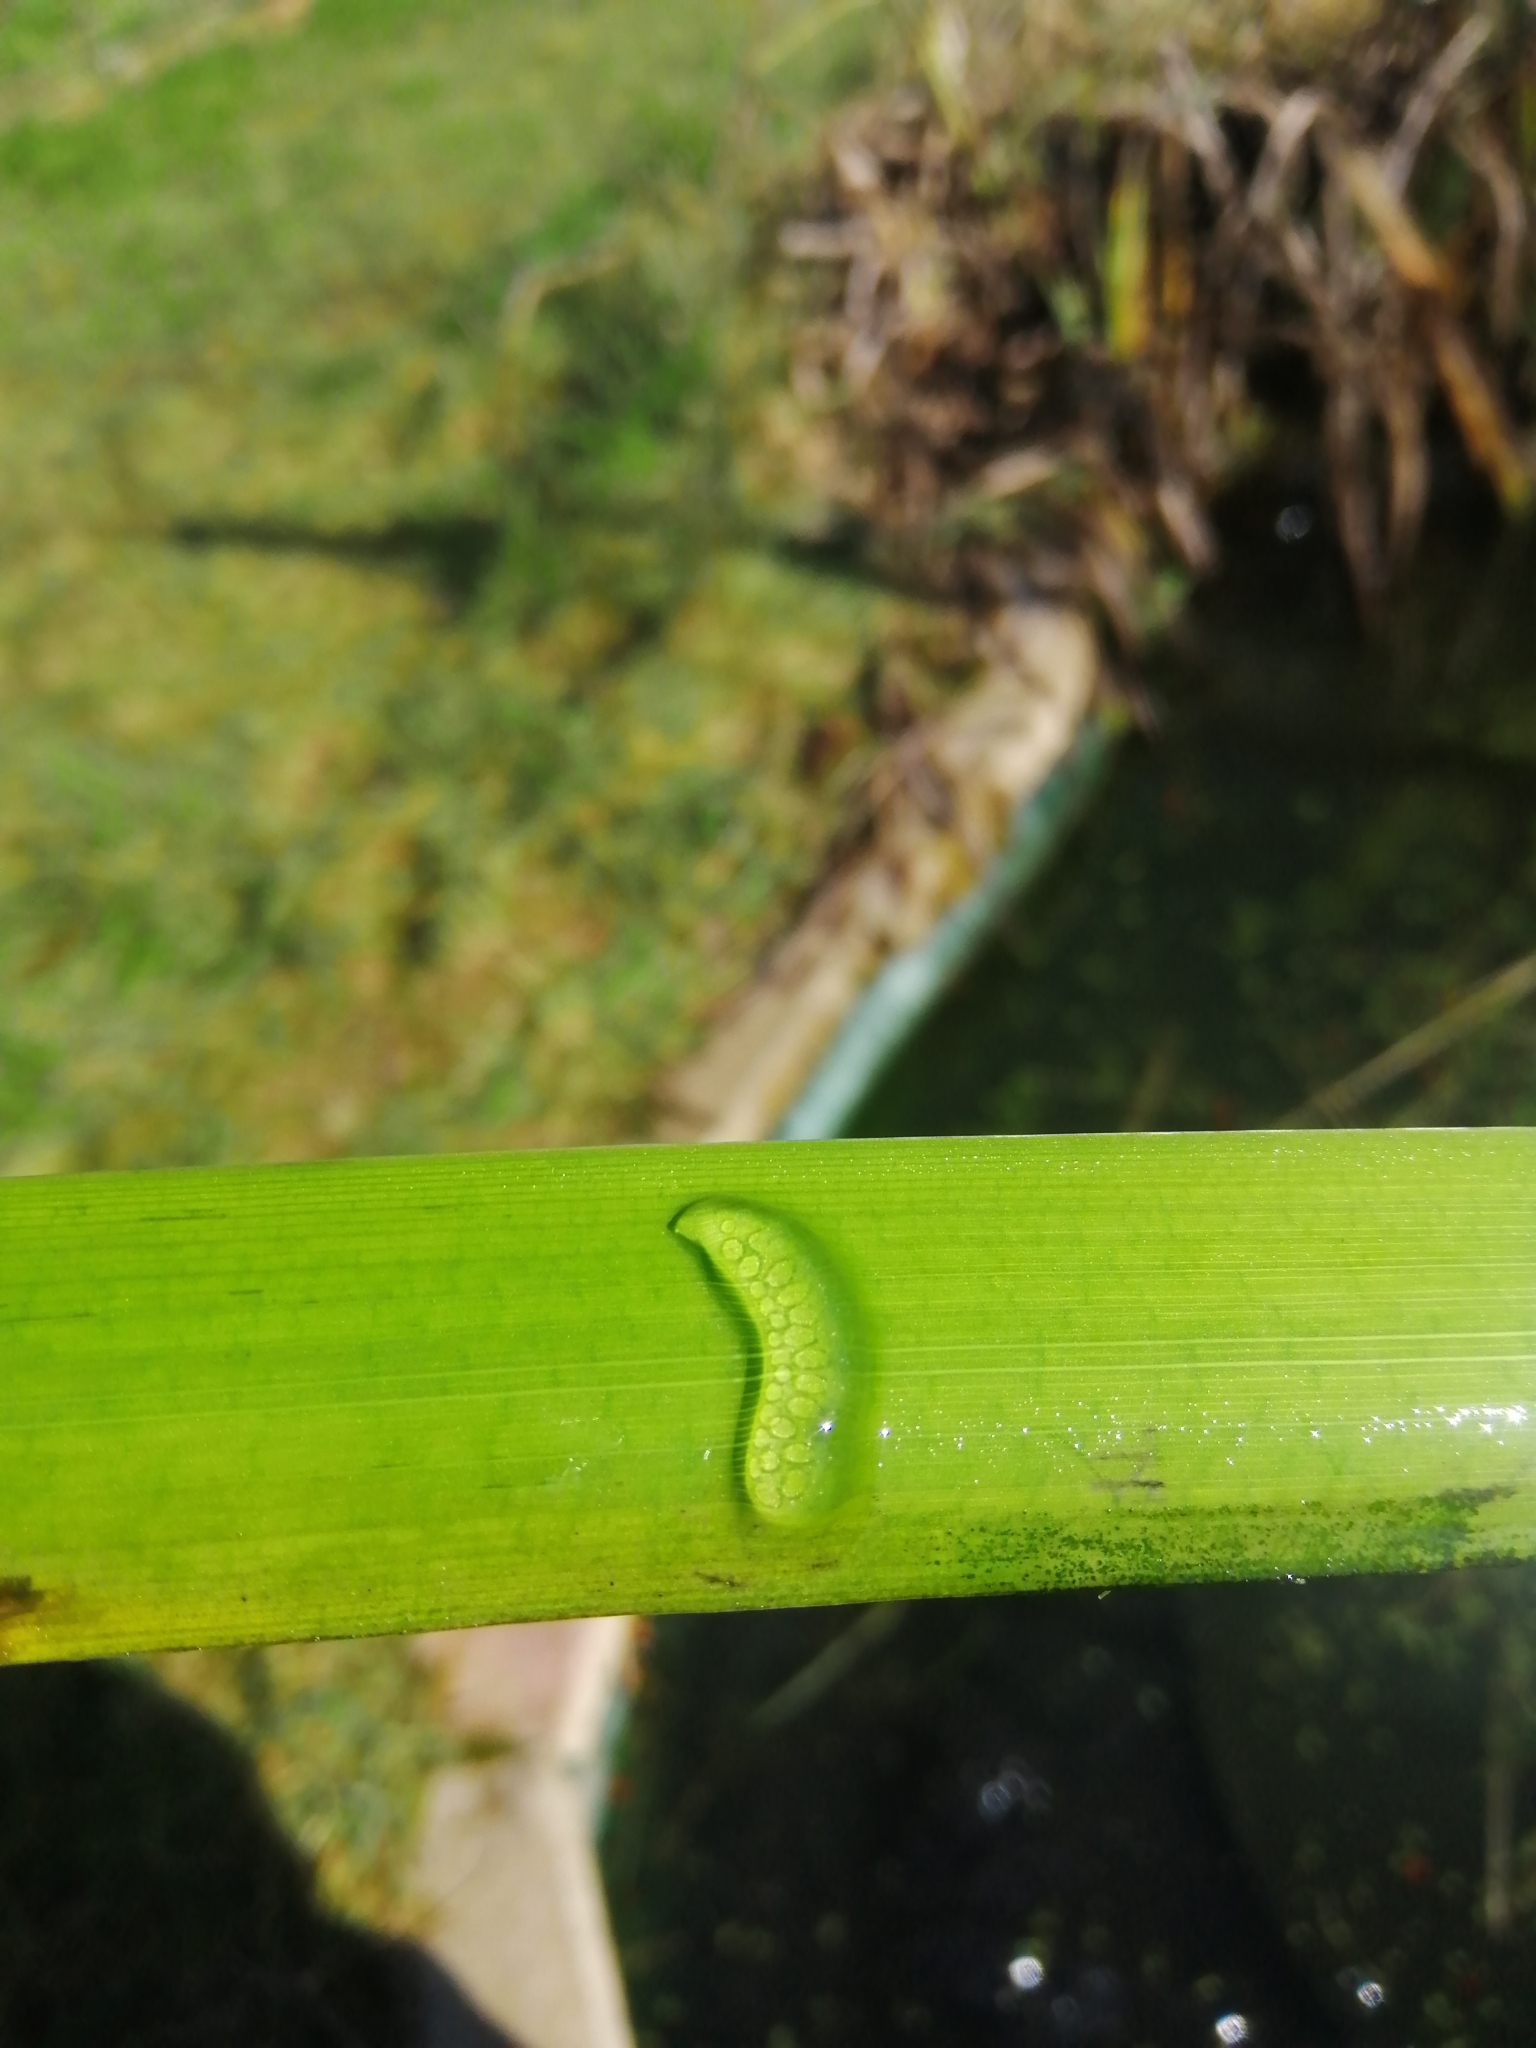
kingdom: Animalia
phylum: Mollusca
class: Gastropoda
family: Lymnaeidae
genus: Ampullaceana
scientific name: Ampullaceana balthica
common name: Wandering pond snail
